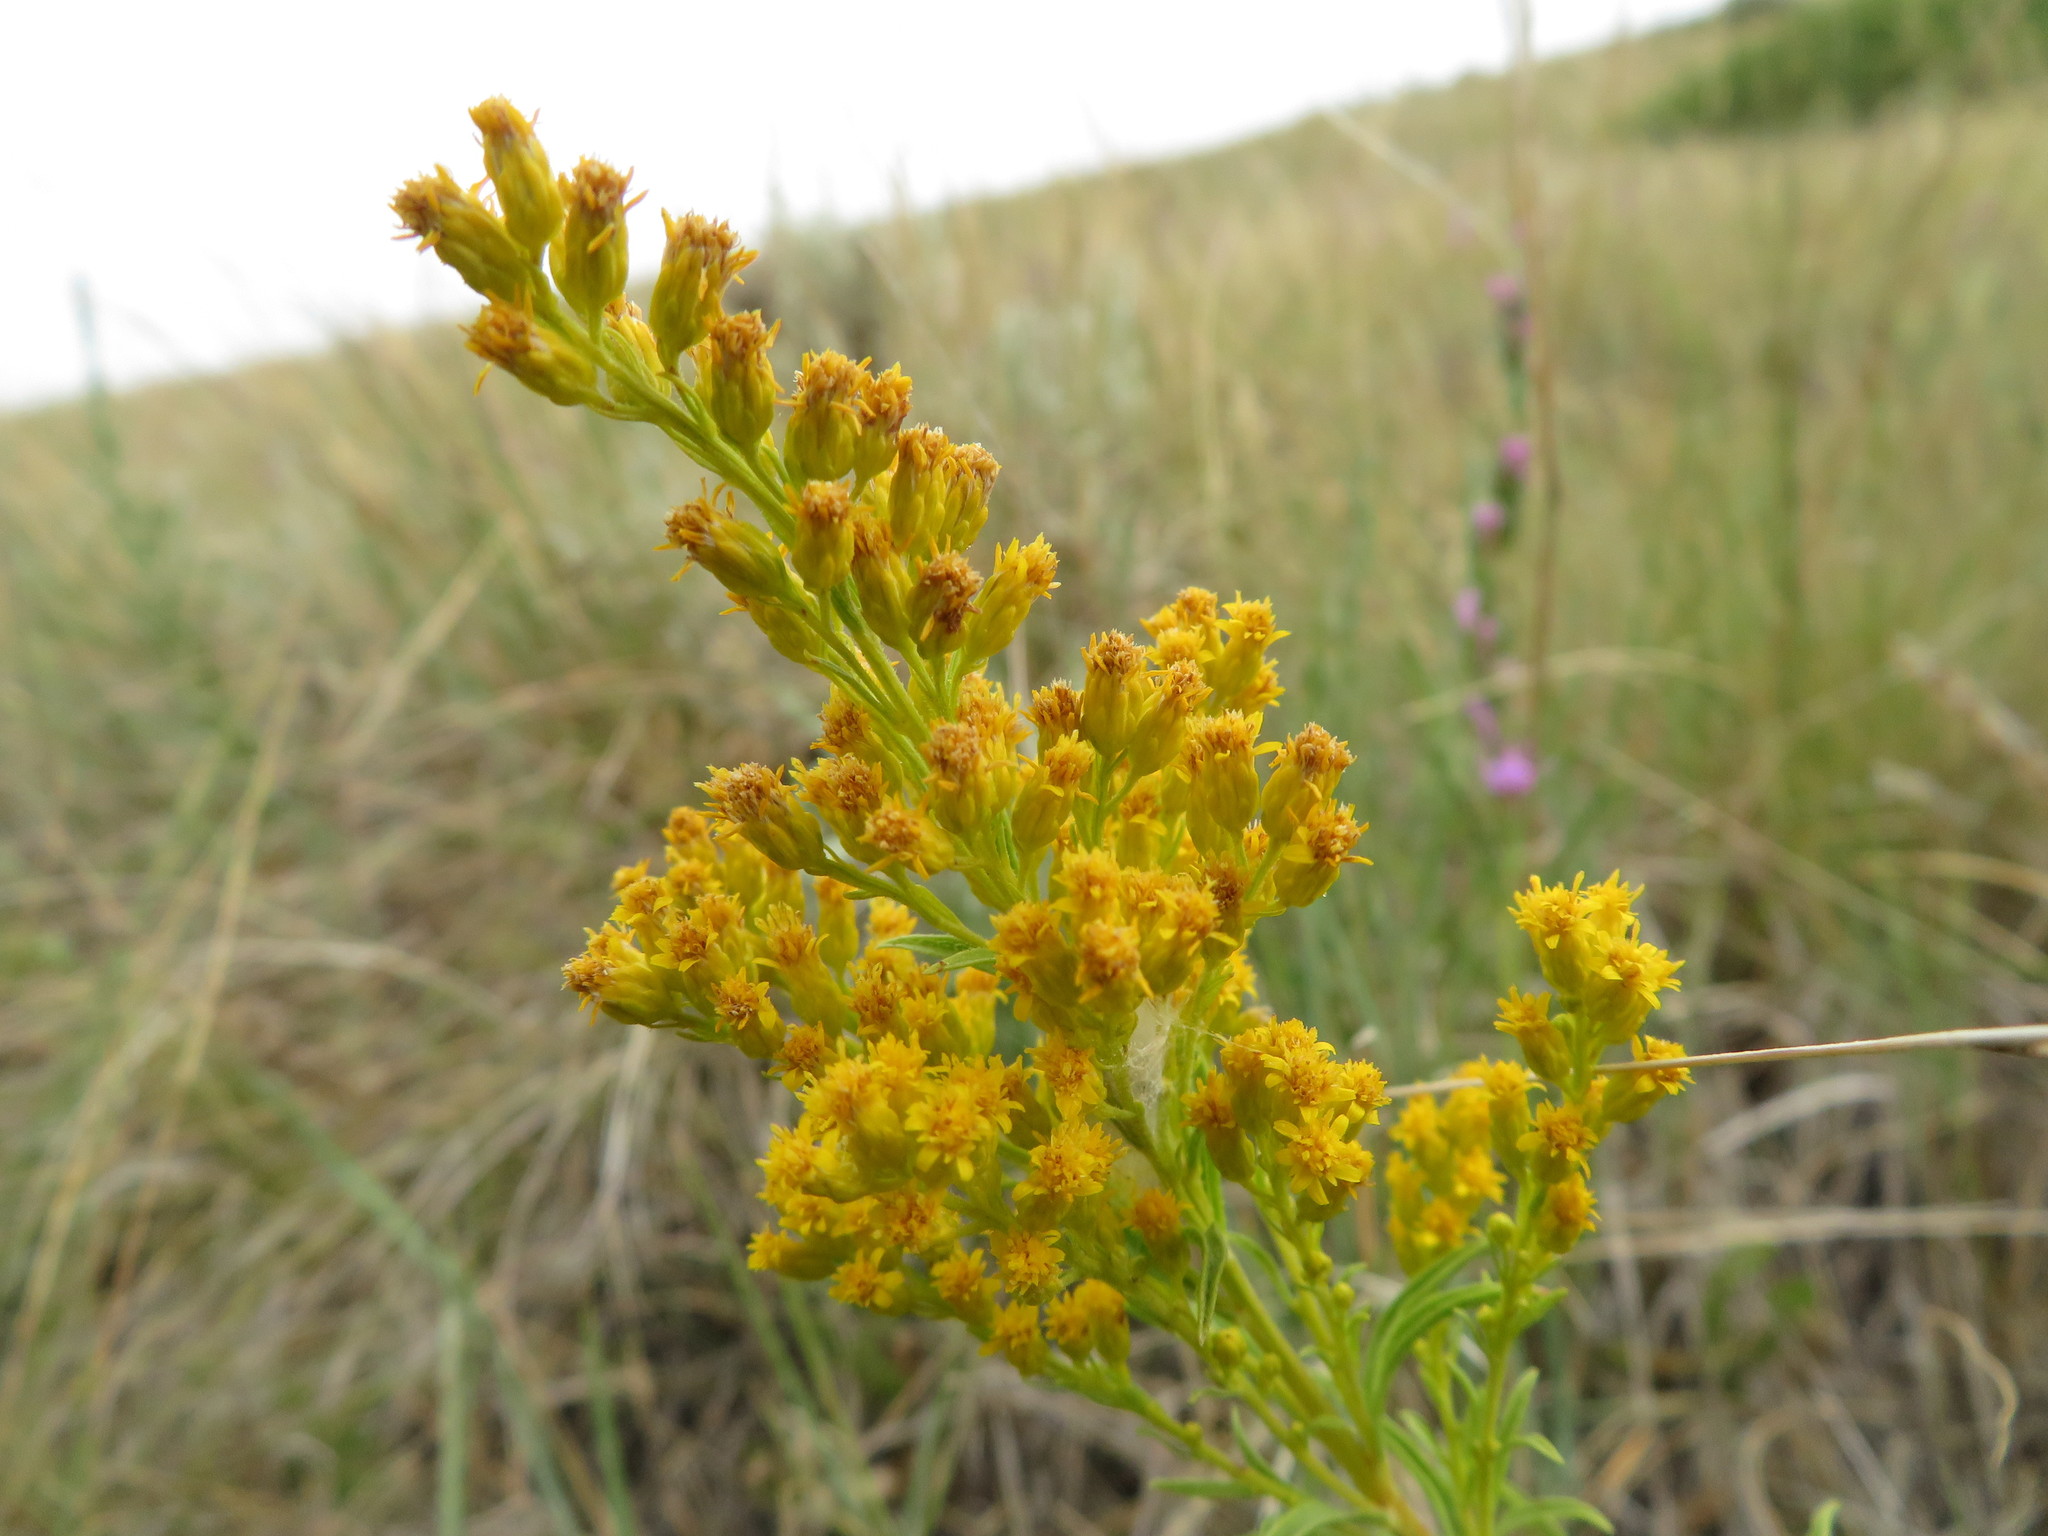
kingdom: Plantae
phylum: Tracheophyta
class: Magnoliopsida
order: Asterales
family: Asteraceae
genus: Solidago
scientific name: Solidago missouriensis
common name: Prairie goldenrod
